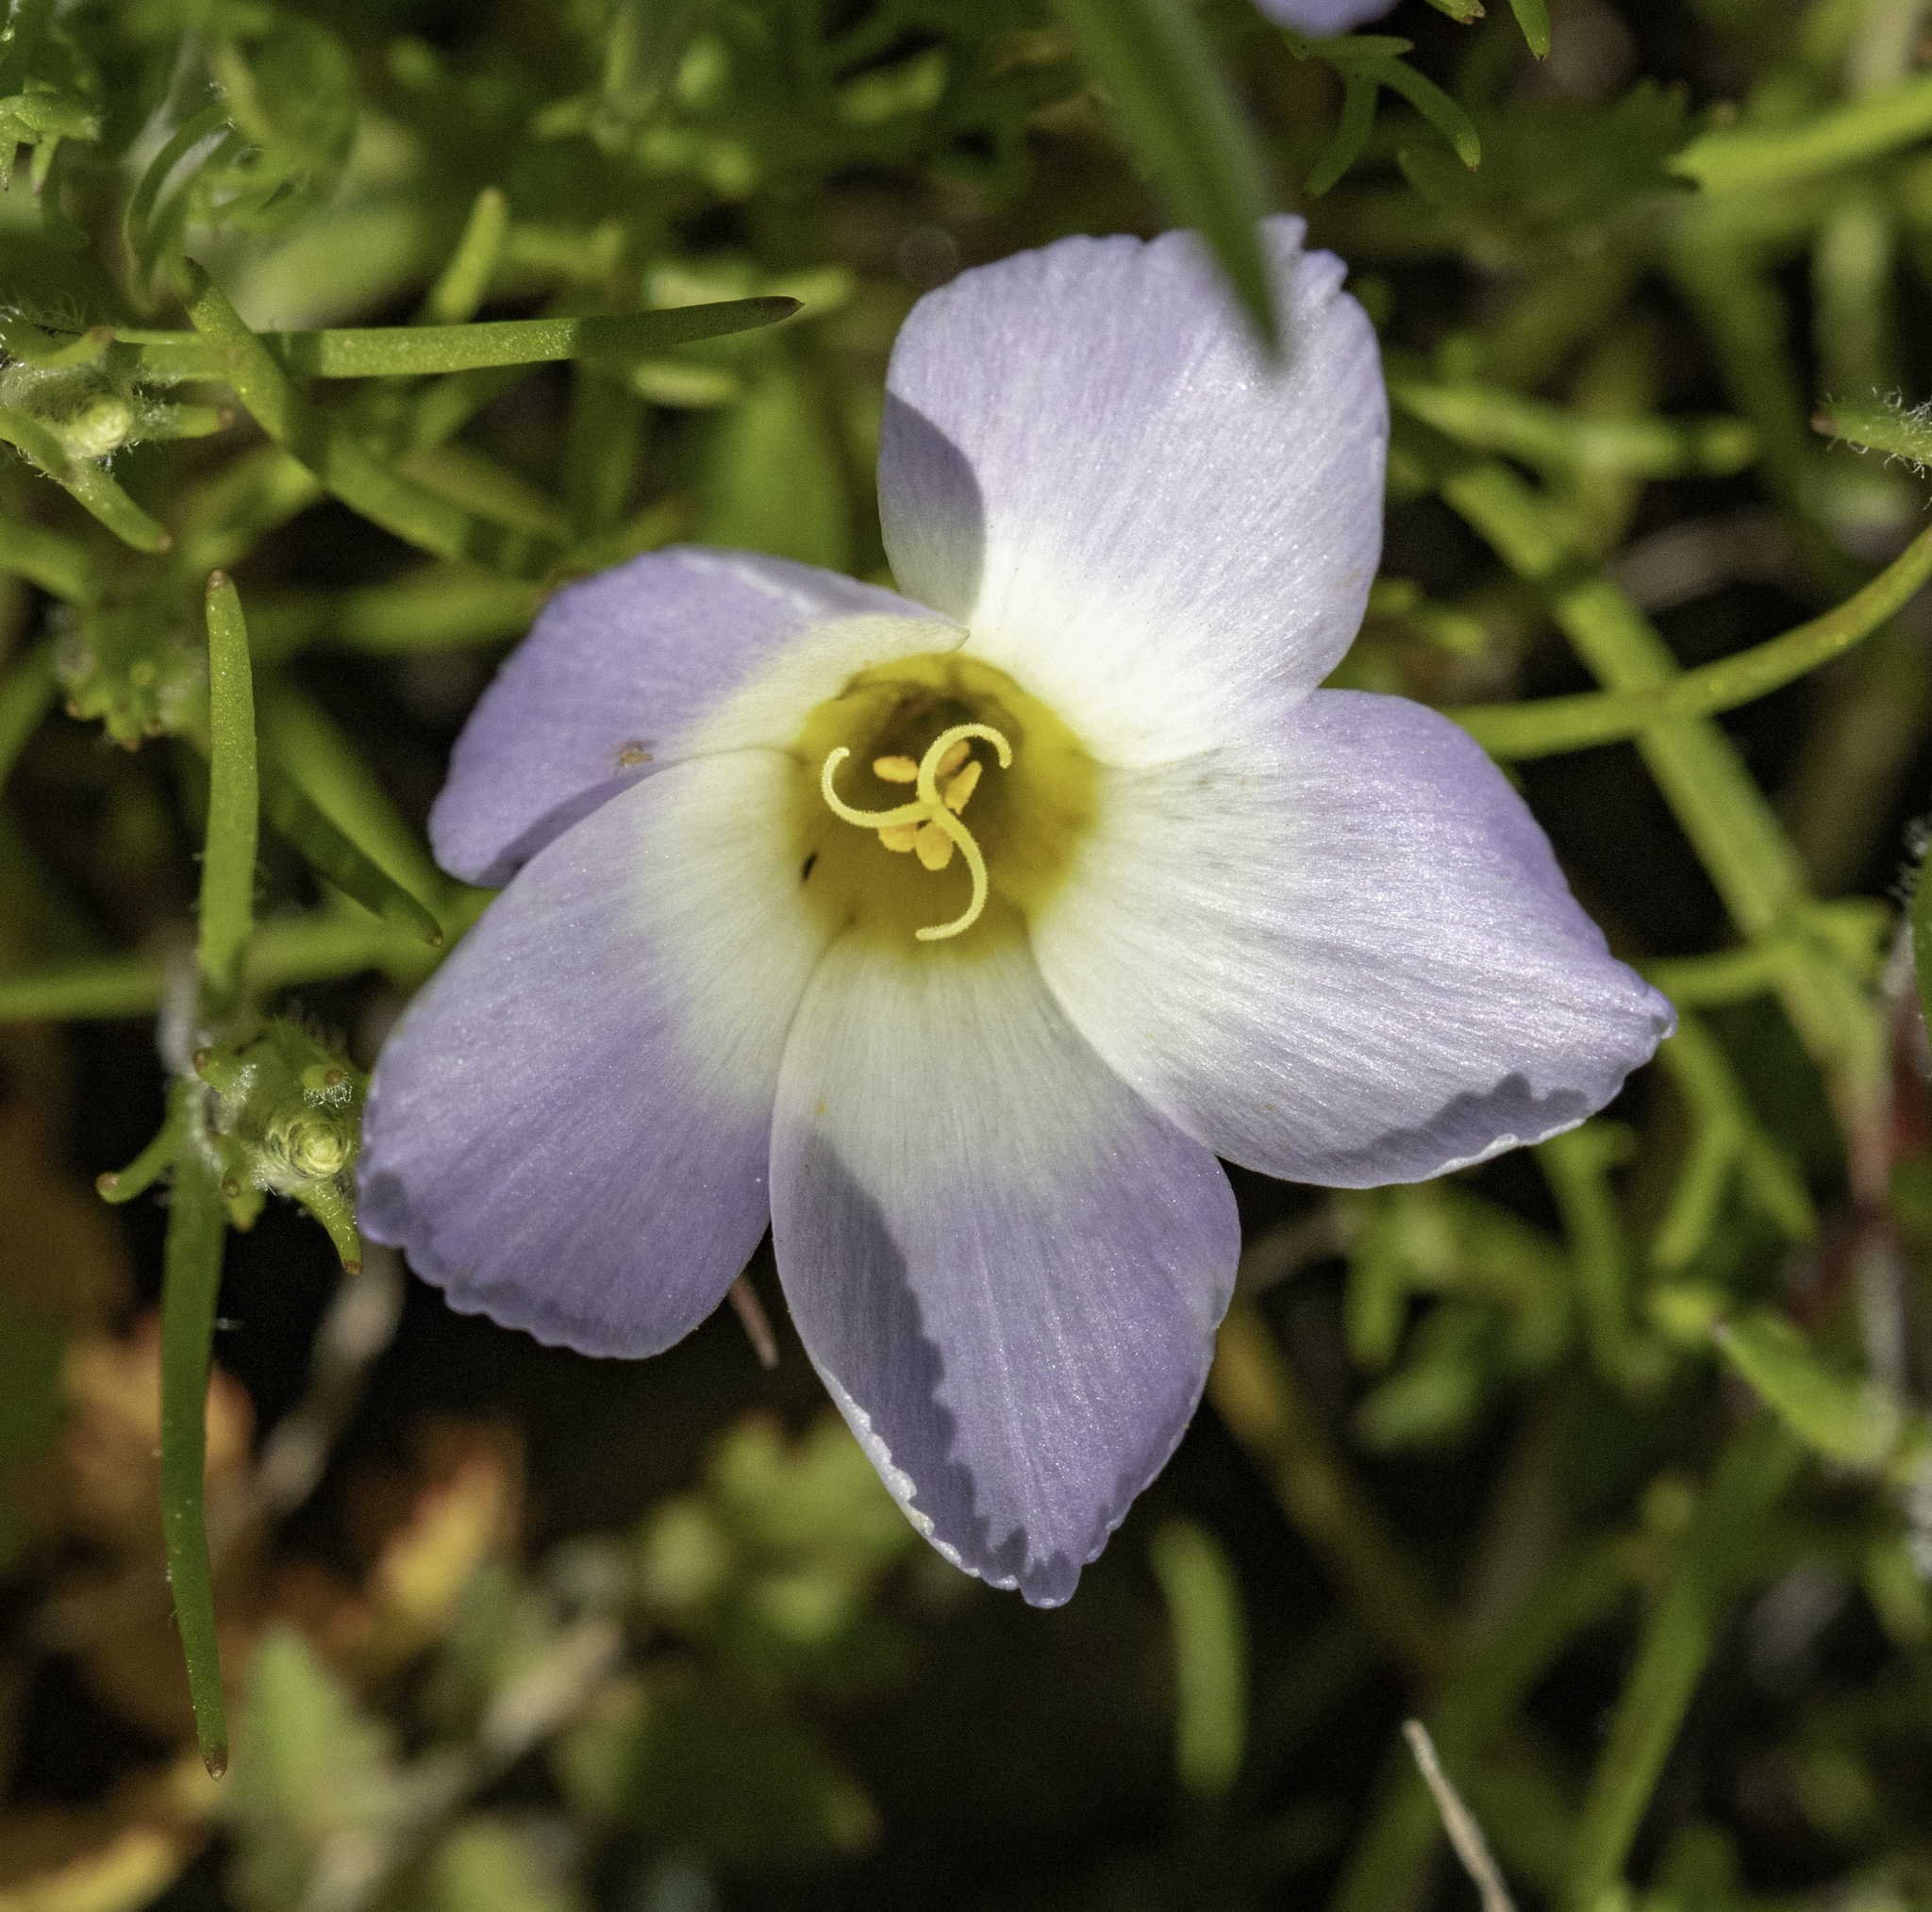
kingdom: Plantae
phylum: Tracheophyta
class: Magnoliopsida
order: Ericales
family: Polemoniaceae
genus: Linanthus
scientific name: Linanthus dianthiflorus
